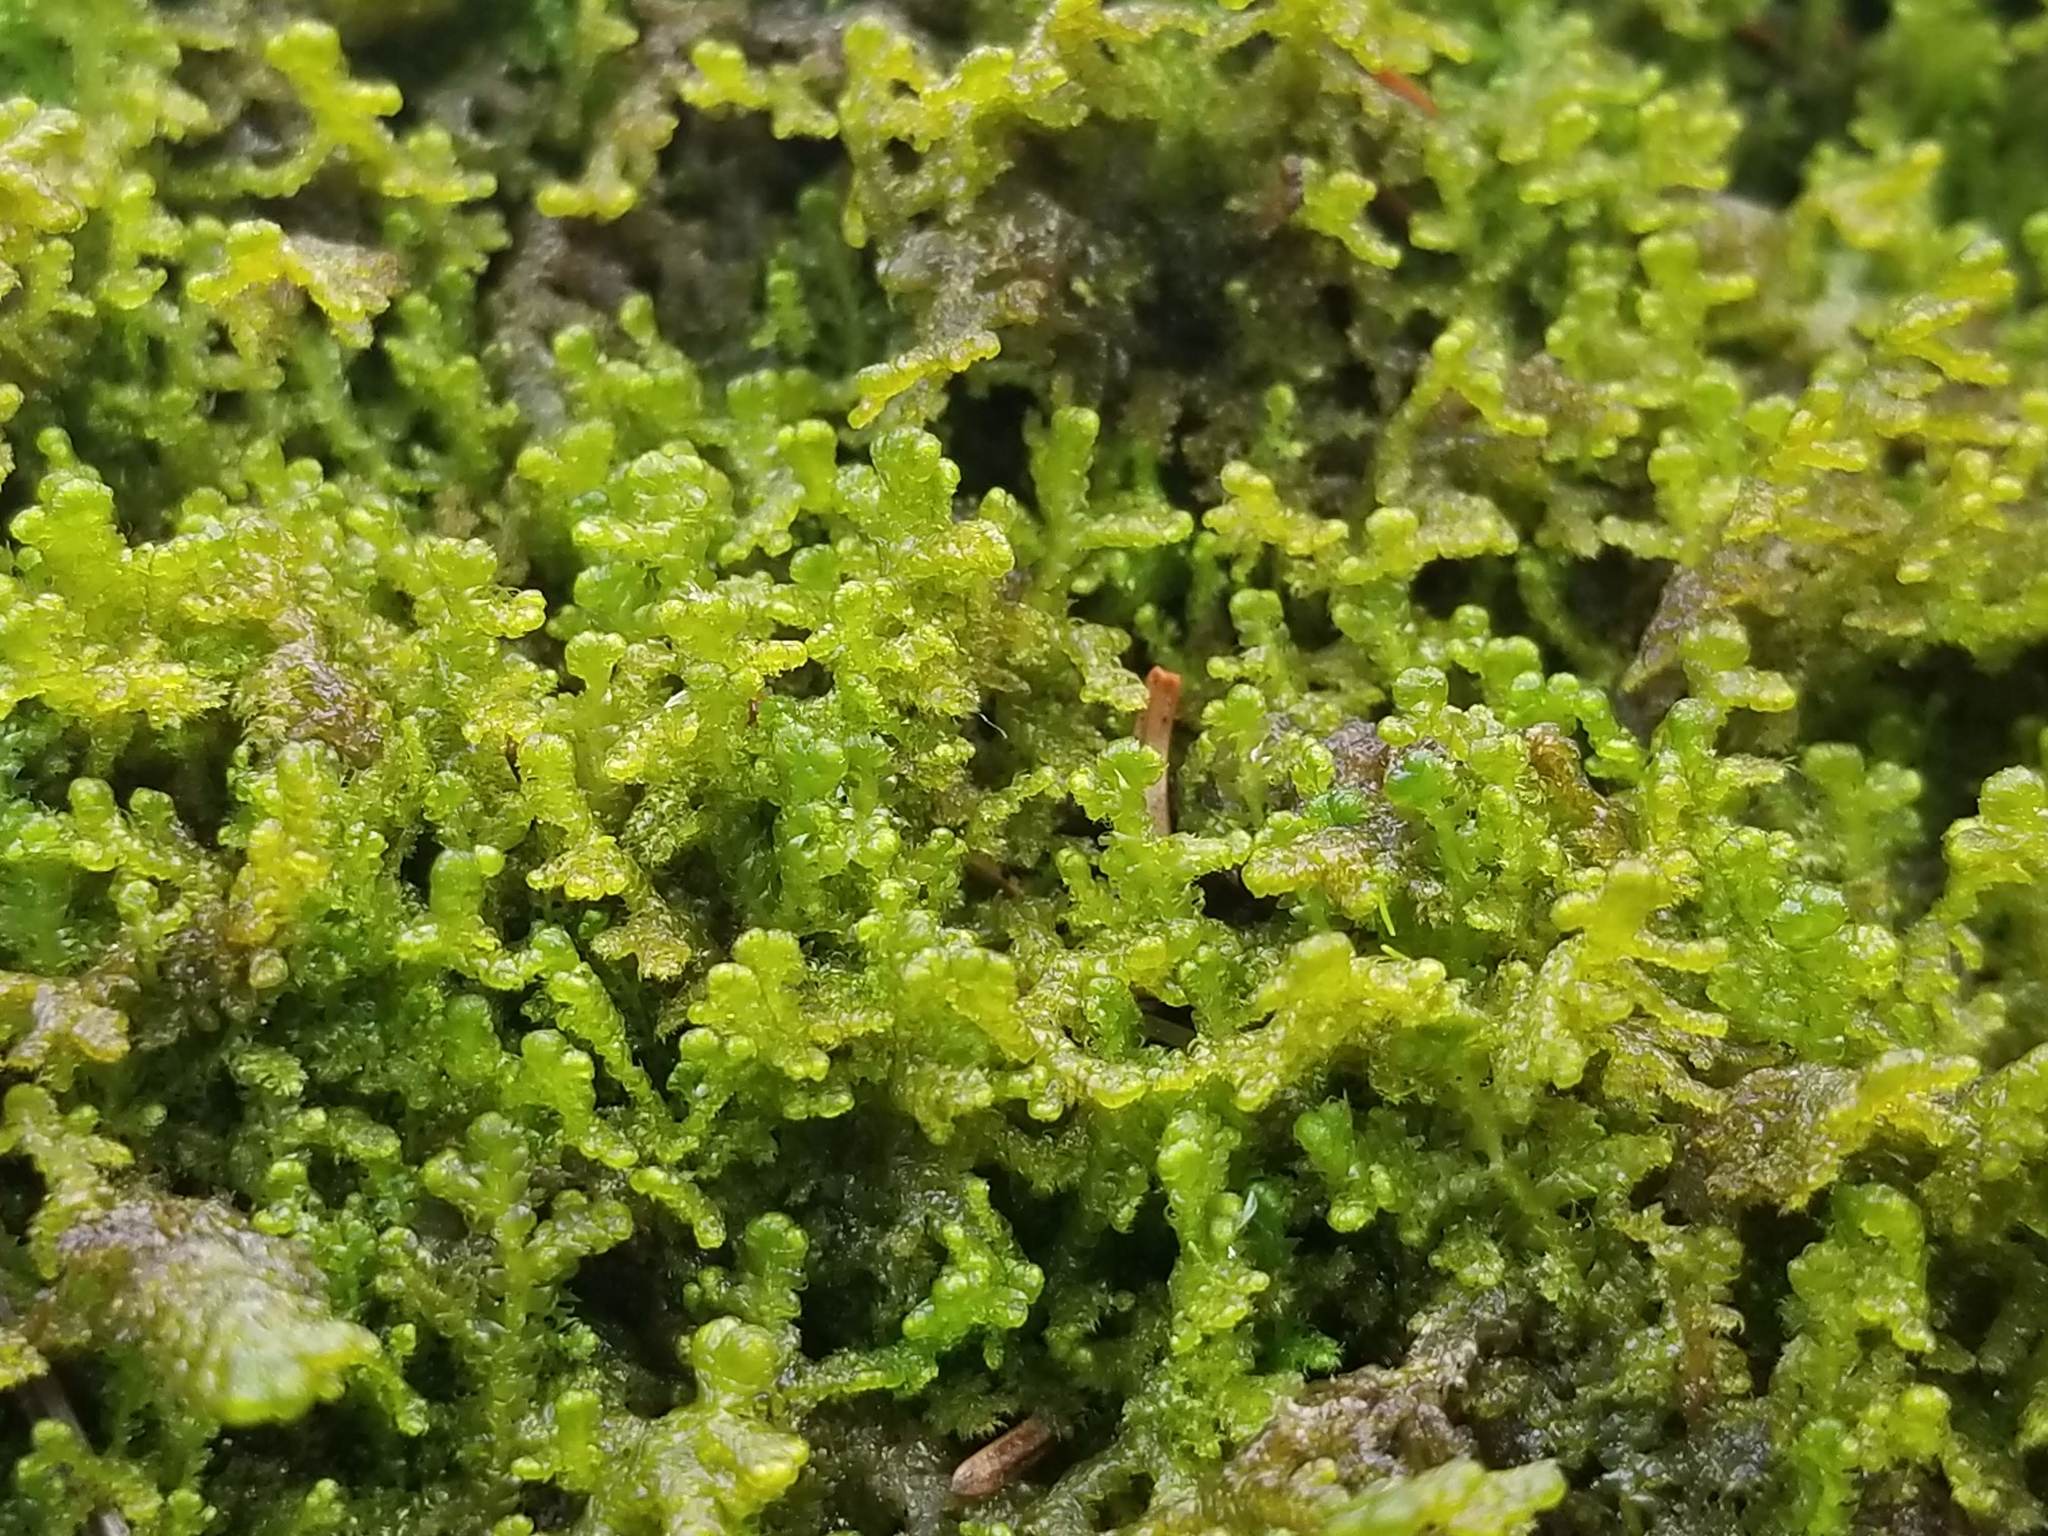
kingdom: Plantae
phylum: Marchantiophyta
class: Jungermanniopsida
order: Ptilidiales
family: Ptilidiaceae
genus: Ptilidium
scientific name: Ptilidium ciliare
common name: Ciliate fringewort
